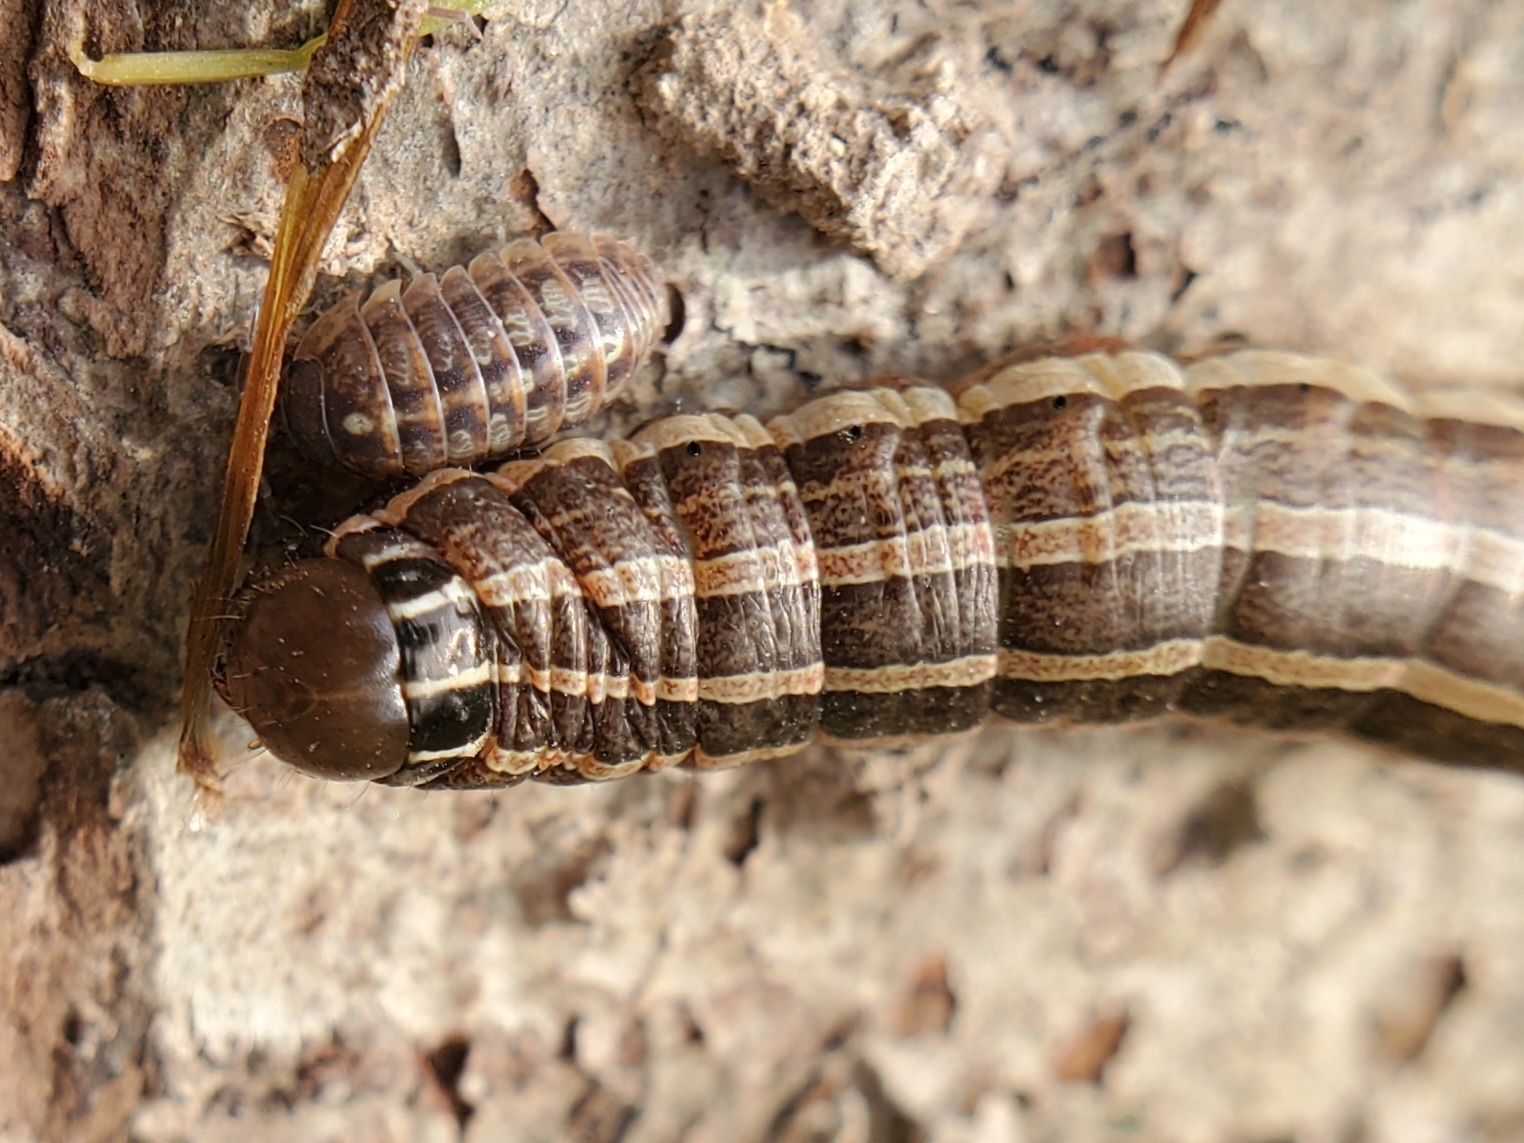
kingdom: Animalia
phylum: Arthropoda
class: Insecta
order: Lepidoptera
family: Noctuidae
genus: Nephelodes
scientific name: Nephelodes minians
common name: Bronzed cutworm
